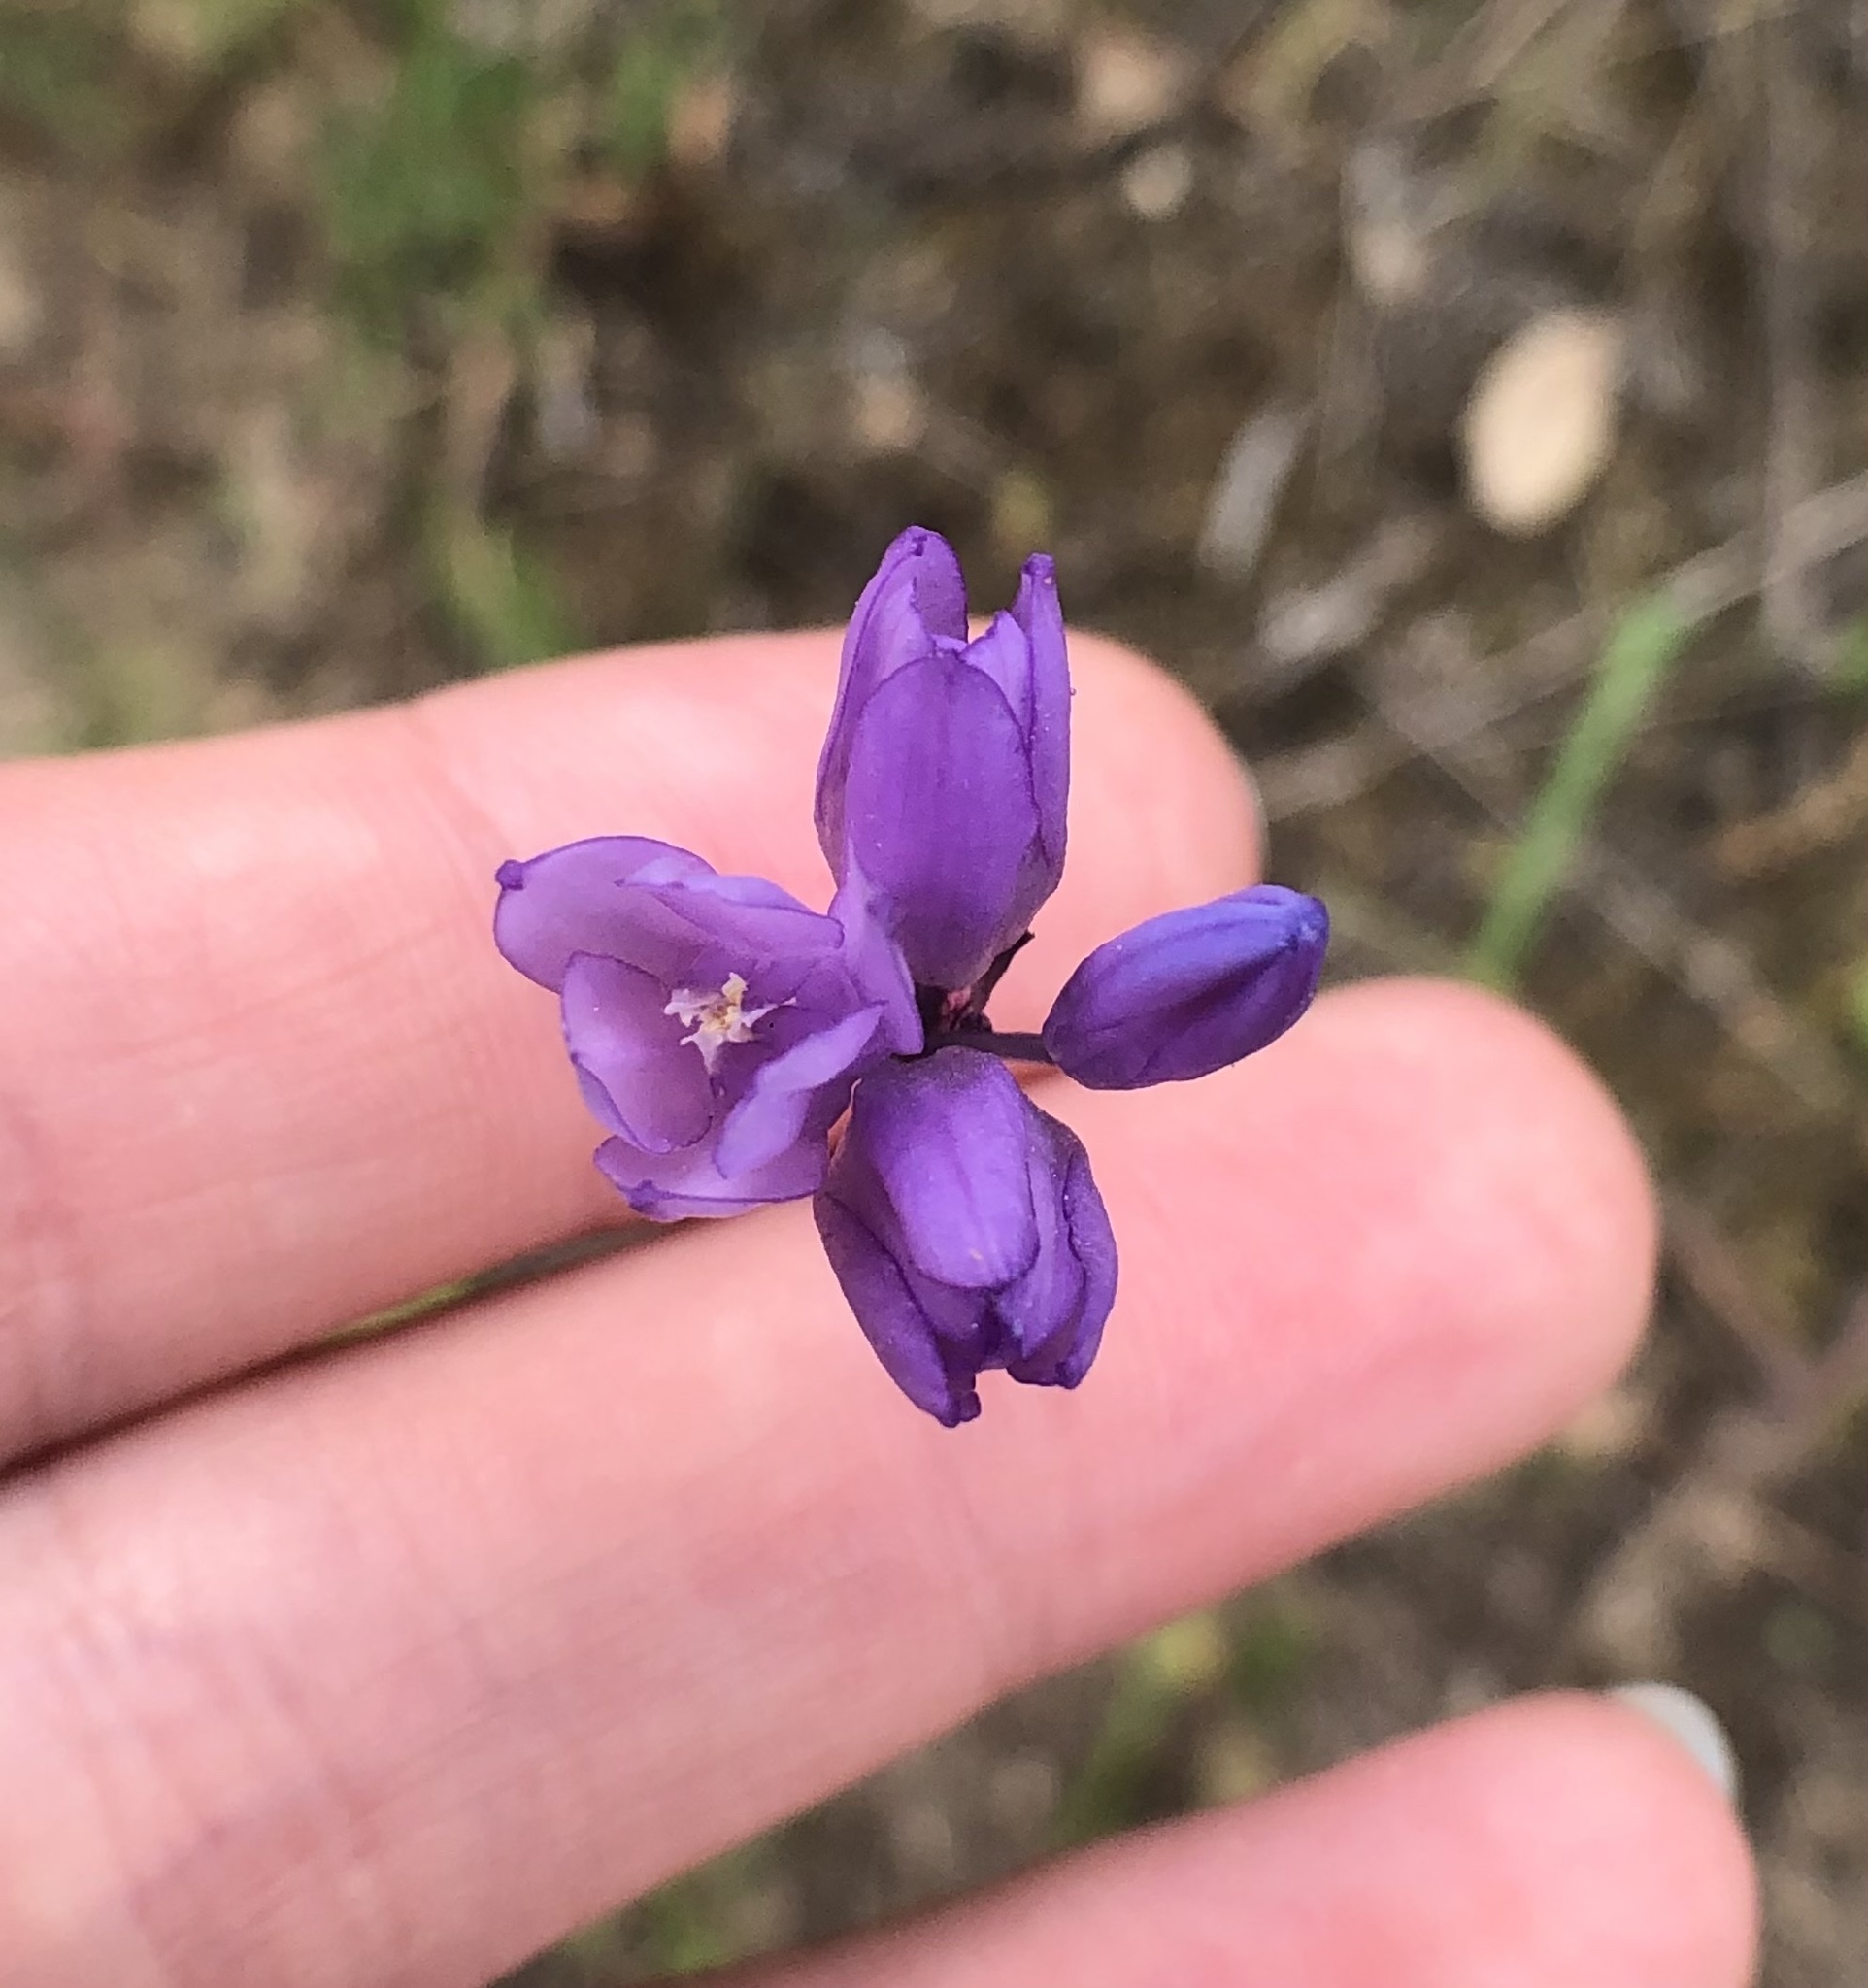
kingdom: Plantae
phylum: Tracheophyta
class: Liliopsida
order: Asparagales
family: Asparagaceae
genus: Dipterostemon
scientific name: Dipterostemon capitatus
